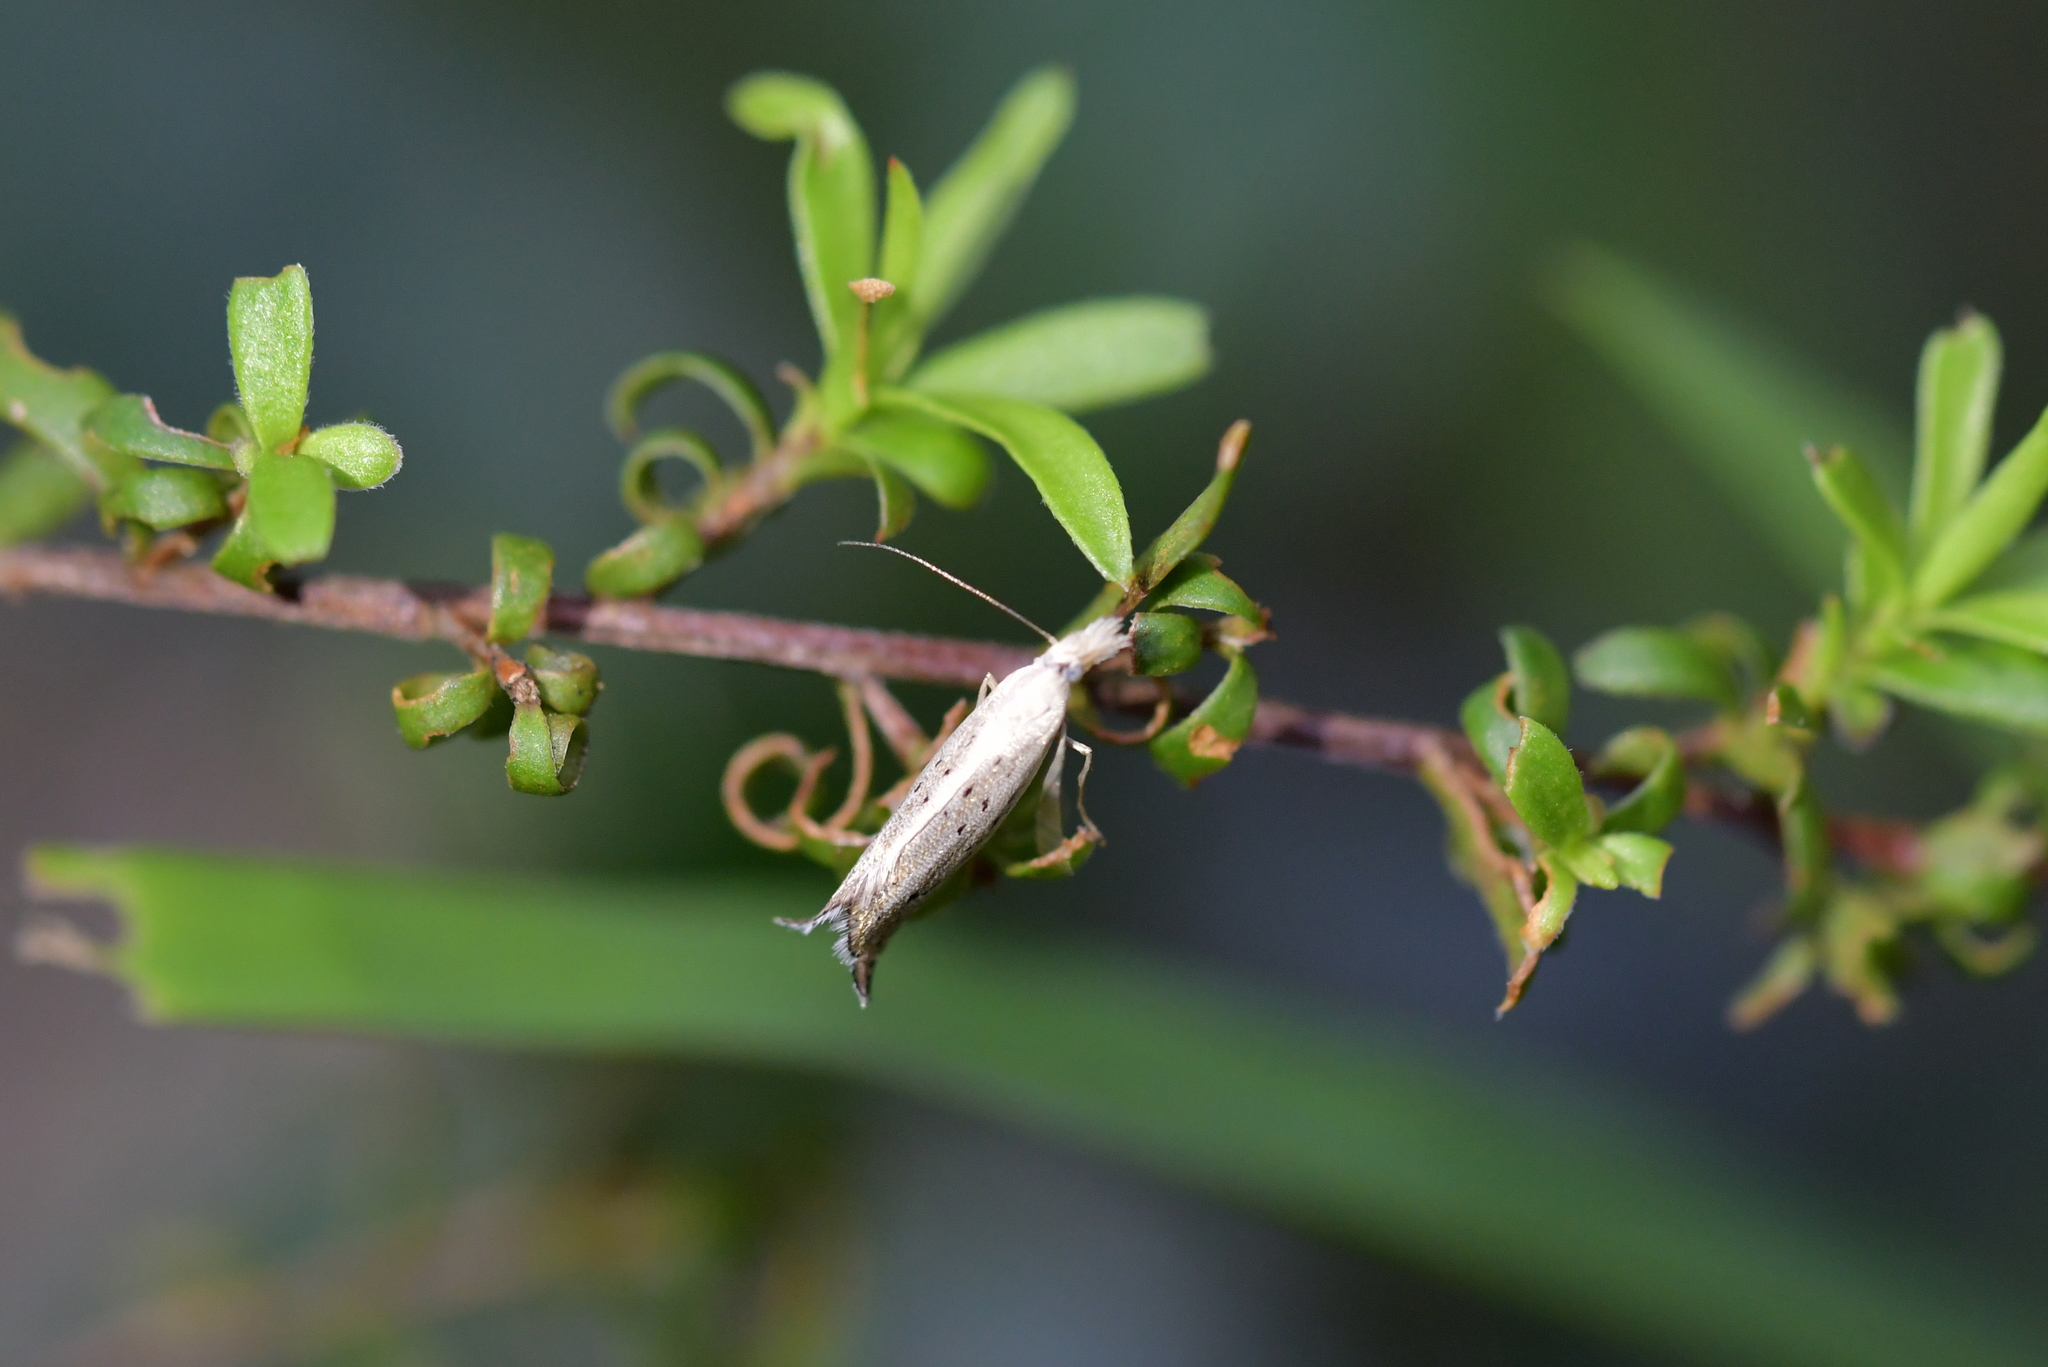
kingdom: Animalia
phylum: Arthropoda
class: Insecta
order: Lepidoptera
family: Glyphipterigidae
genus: Glyphipterix
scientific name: Glyphipterix achlyoessa
